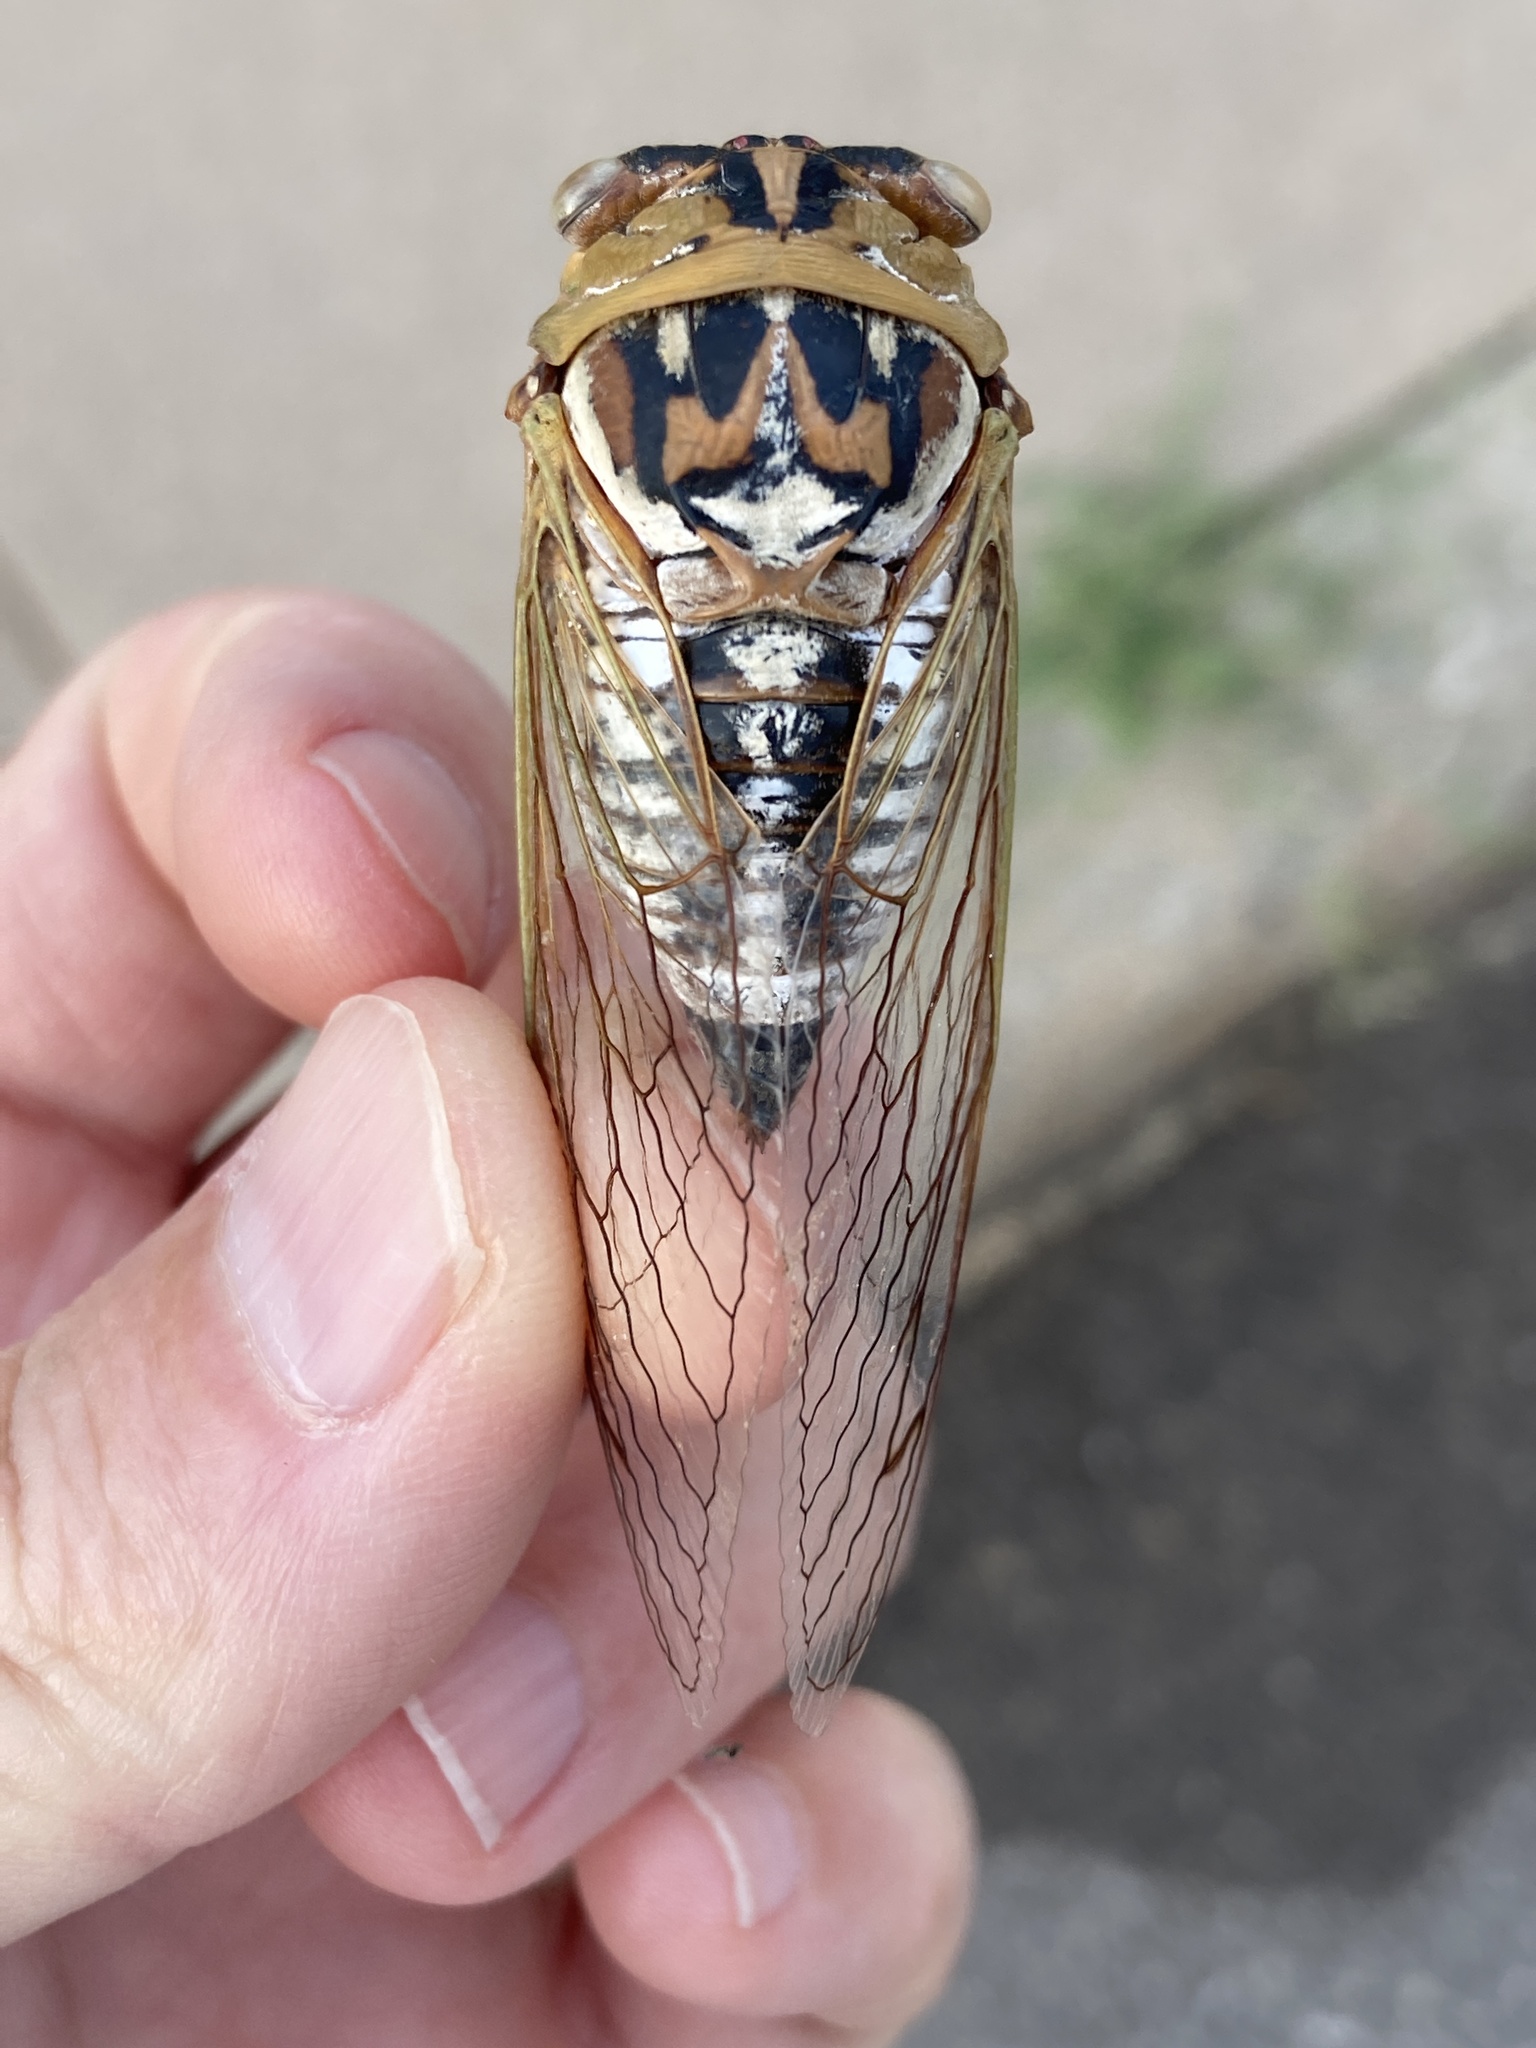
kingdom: Animalia
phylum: Arthropoda
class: Insecta
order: Hemiptera
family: Cicadidae
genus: Megatibicen
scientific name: Megatibicen dealbatus
